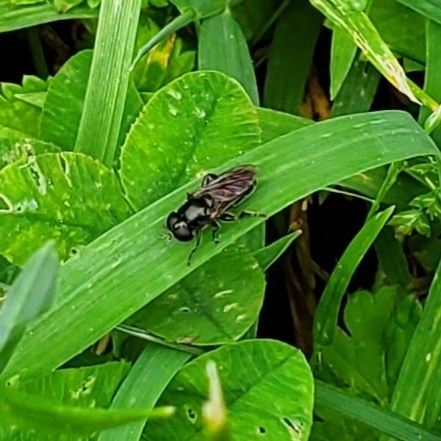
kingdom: Animalia
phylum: Arthropoda
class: Insecta
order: Diptera
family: Syrphidae
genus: Eumerus
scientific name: Eumerus
